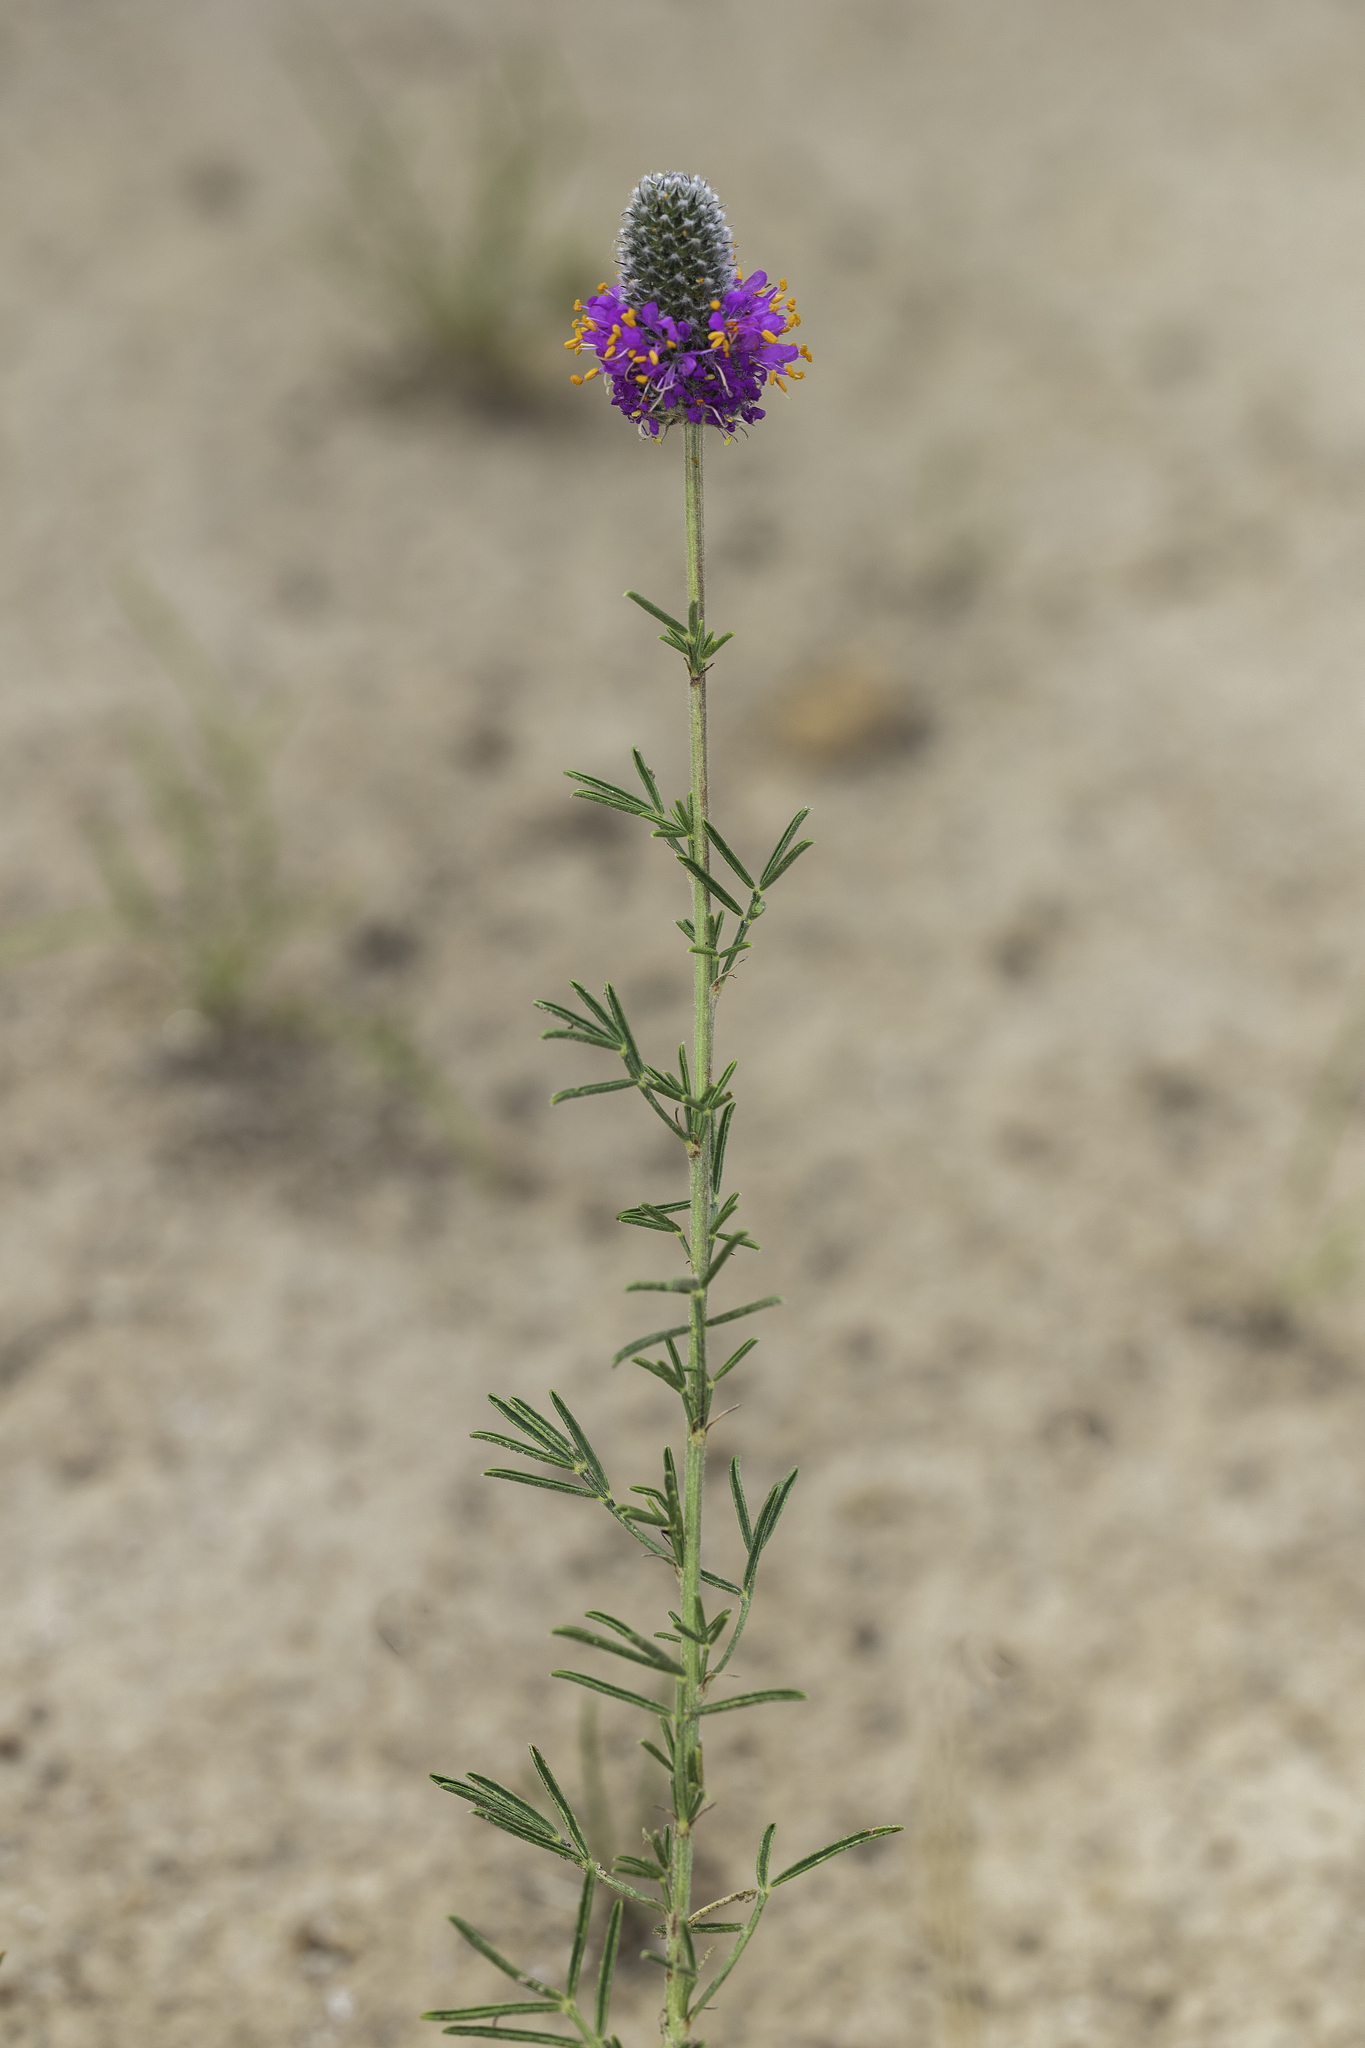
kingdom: Plantae
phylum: Tracheophyta
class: Magnoliopsida
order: Fabales
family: Fabaceae
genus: Dalea
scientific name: Dalea purpurea
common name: Purple prairie-clover
